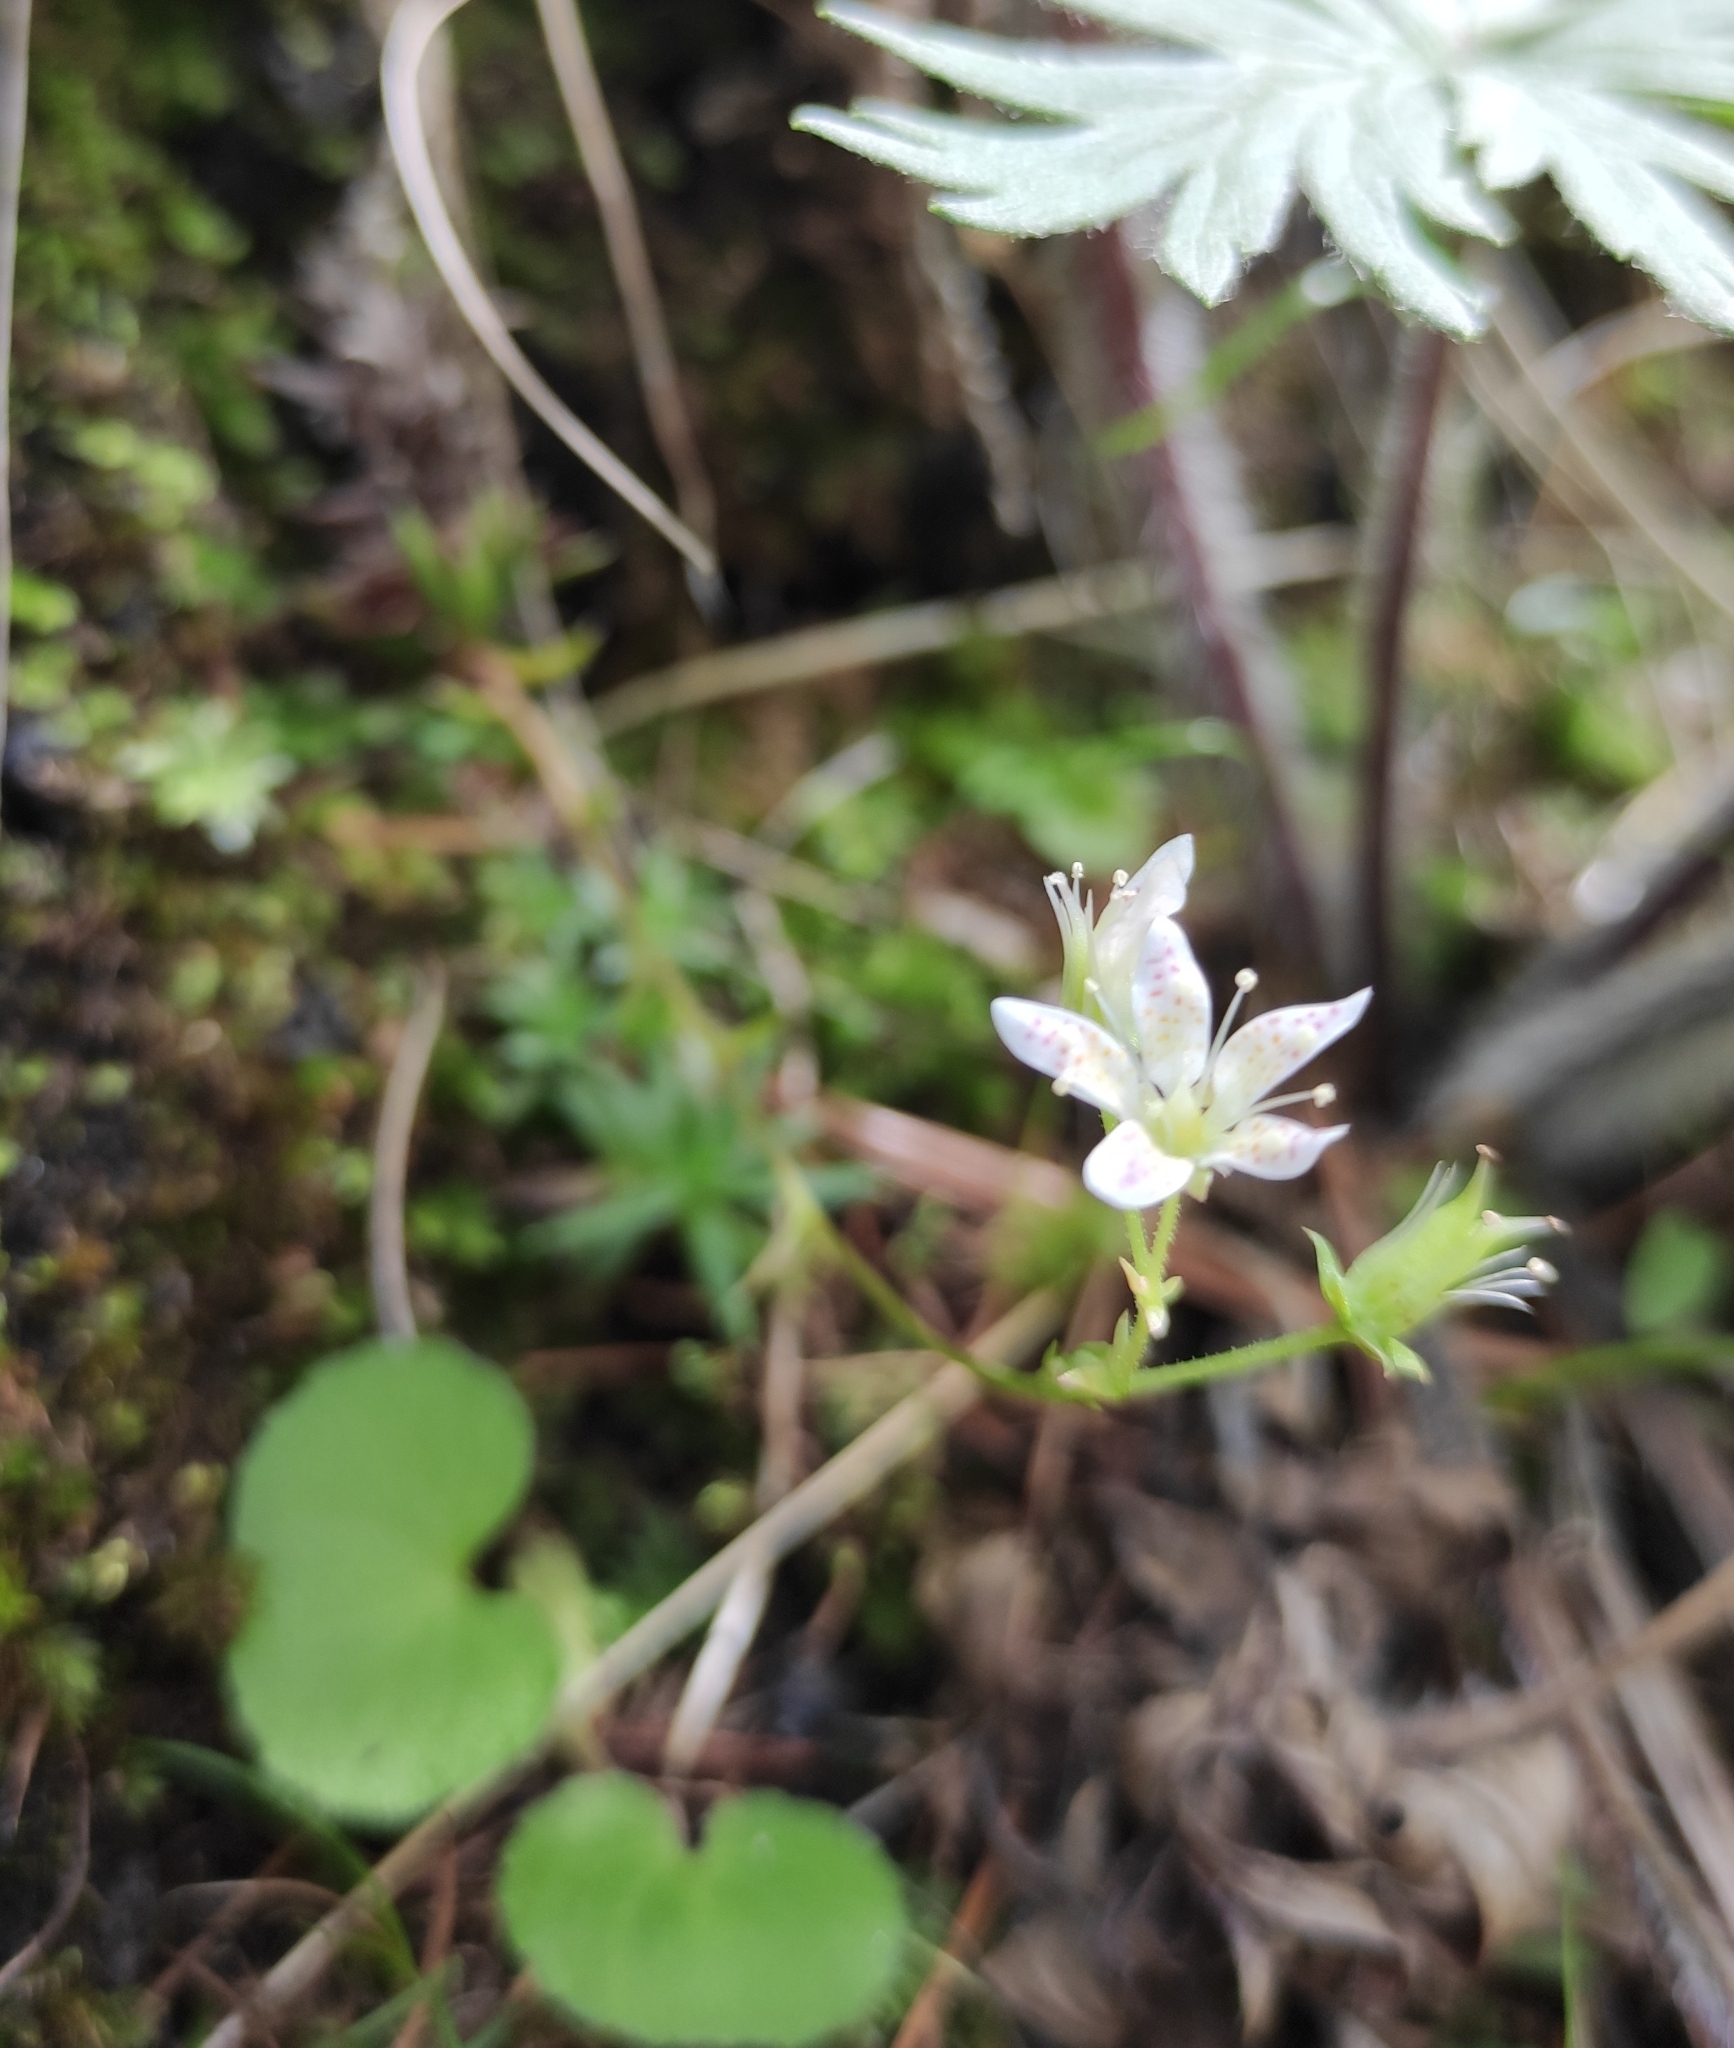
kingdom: Plantae
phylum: Tracheophyta
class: Magnoliopsida
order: Saxifragales
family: Saxifragaceae
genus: Saxifraga
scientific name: Saxifraga
